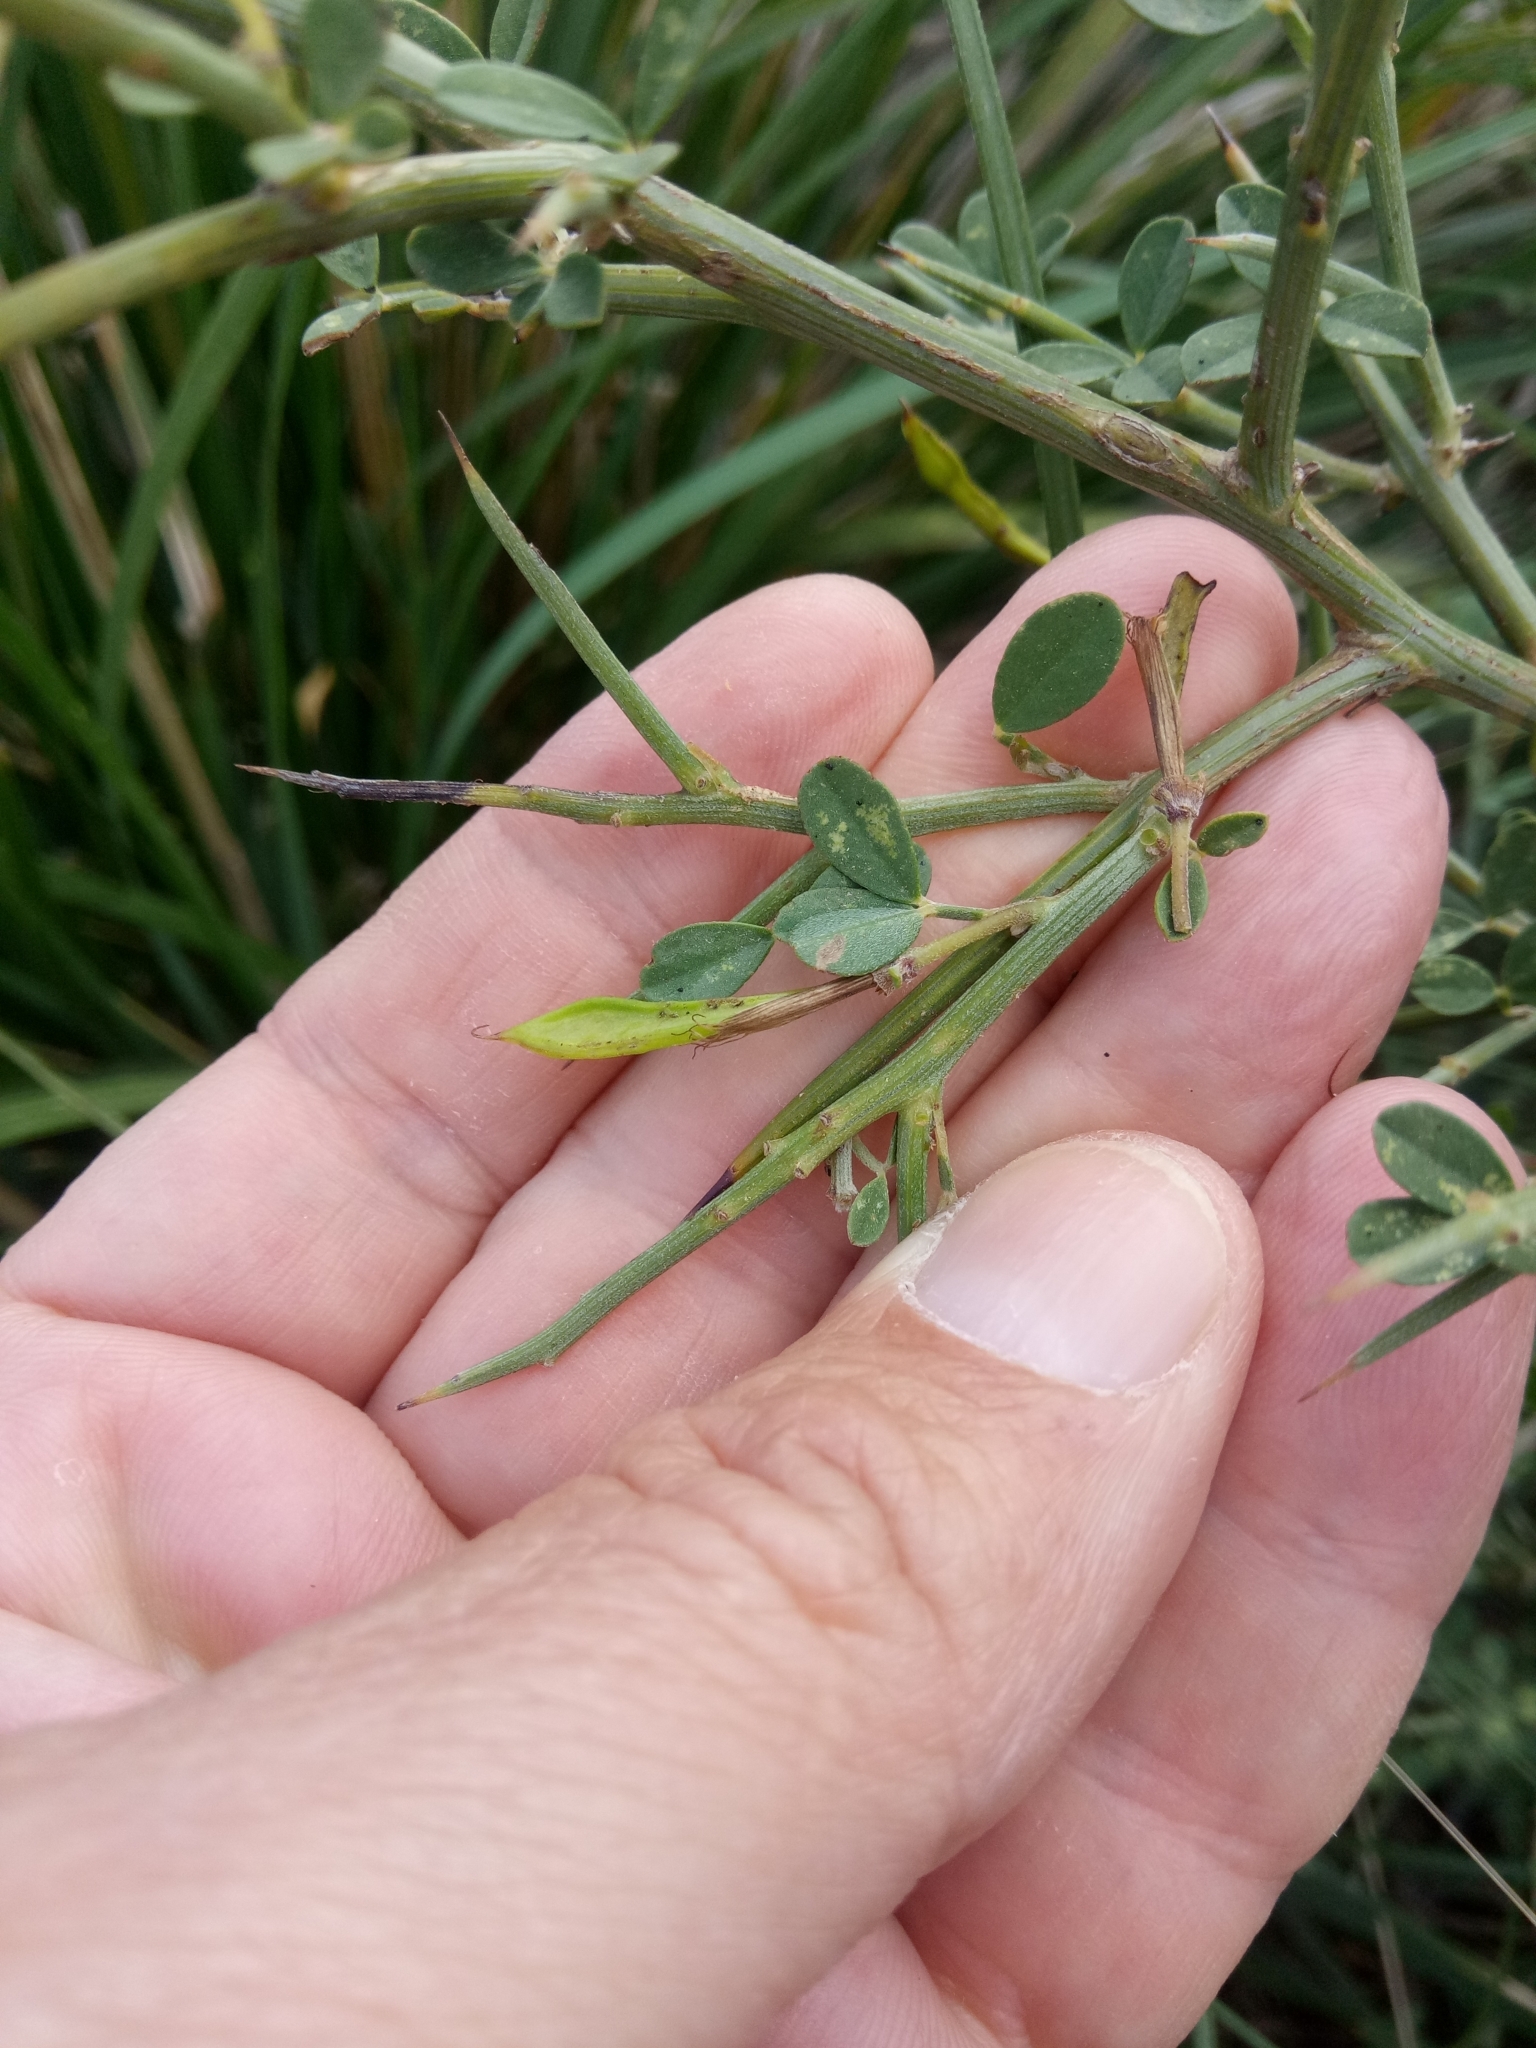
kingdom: Plantae
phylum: Tracheophyta
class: Magnoliopsida
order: Fabales
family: Fabaceae
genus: Calicotome
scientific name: Calicotome spinosa
